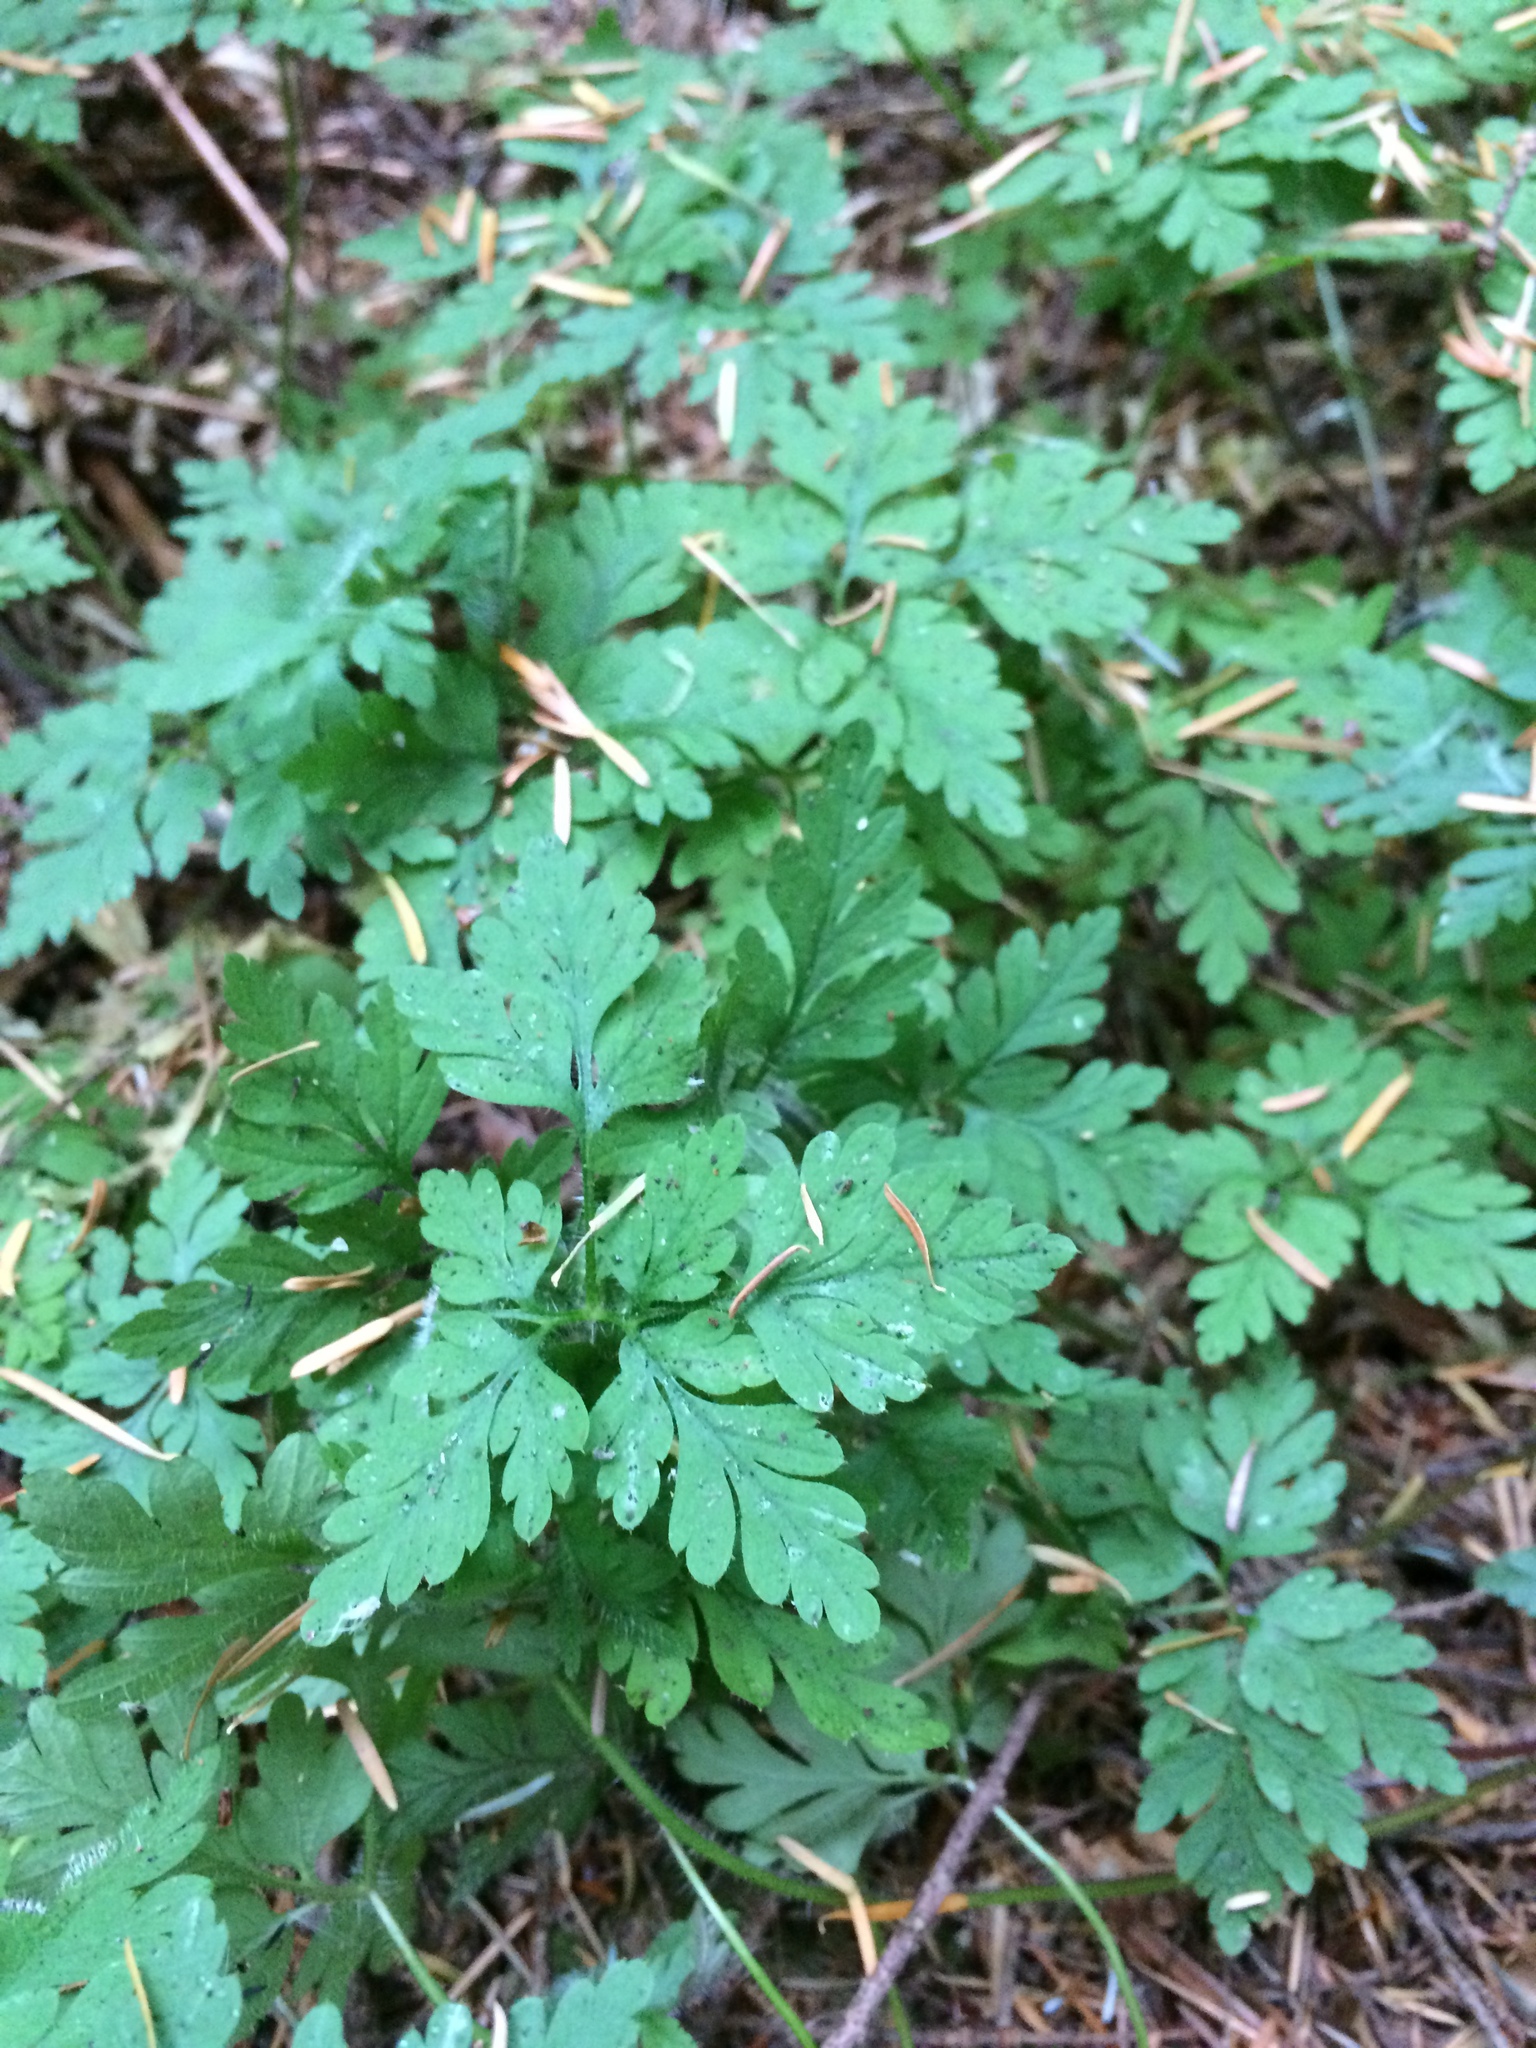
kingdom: Plantae
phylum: Tracheophyta
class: Magnoliopsida
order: Geraniales
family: Geraniaceae
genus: Geranium
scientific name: Geranium robertianum
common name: Herb-robert
